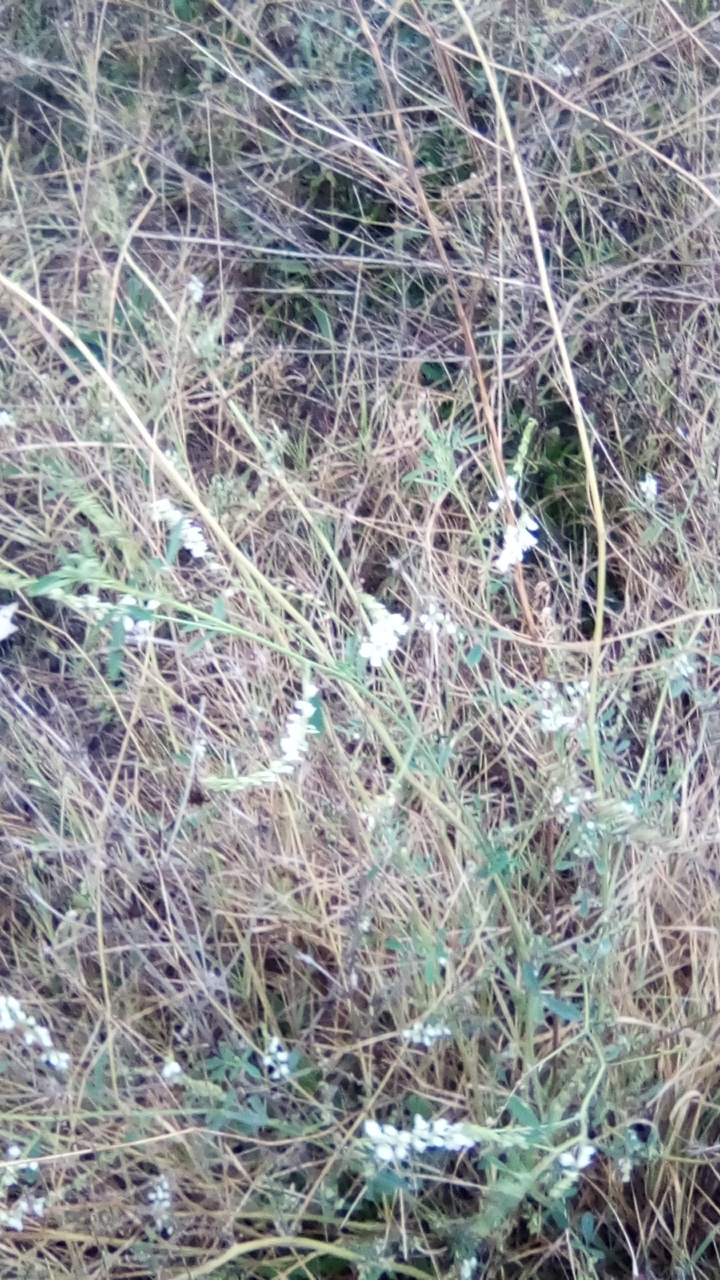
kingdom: Plantae
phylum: Tracheophyta
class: Magnoliopsida
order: Fabales
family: Fabaceae
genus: Melilotus
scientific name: Melilotus albus
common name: White melilot
